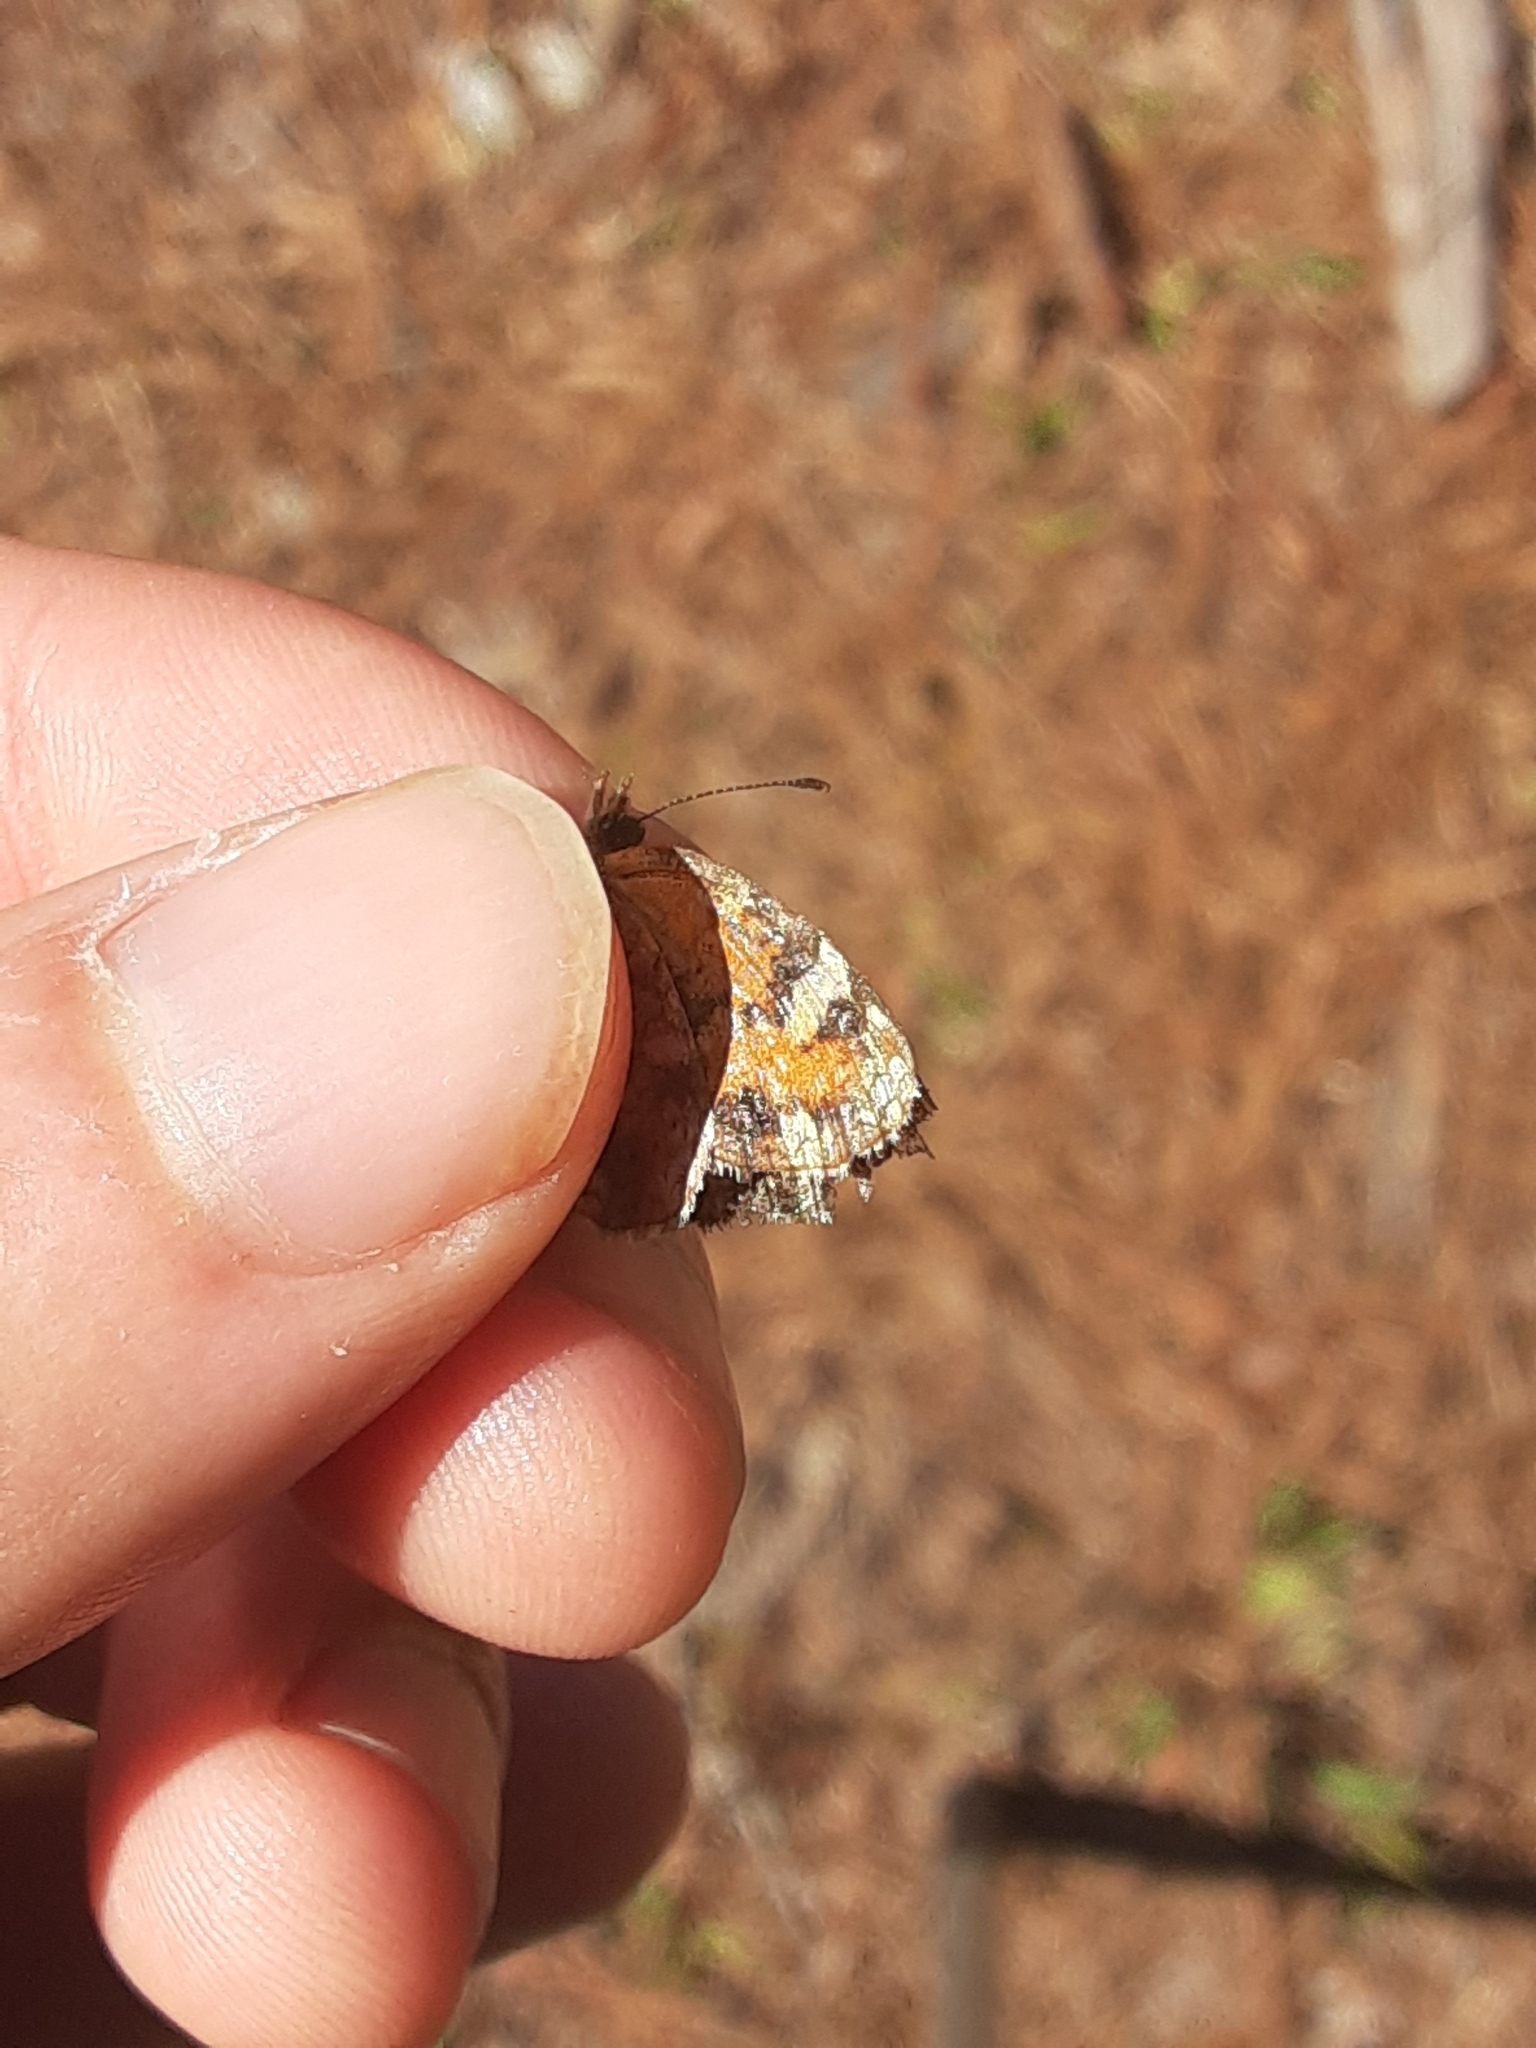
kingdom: Animalia
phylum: Arthropoda
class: Insecta
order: Lepidoptera
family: Nymphalidae
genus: Phyciodes
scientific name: Phyciodes phaon
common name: Phaon crescent
